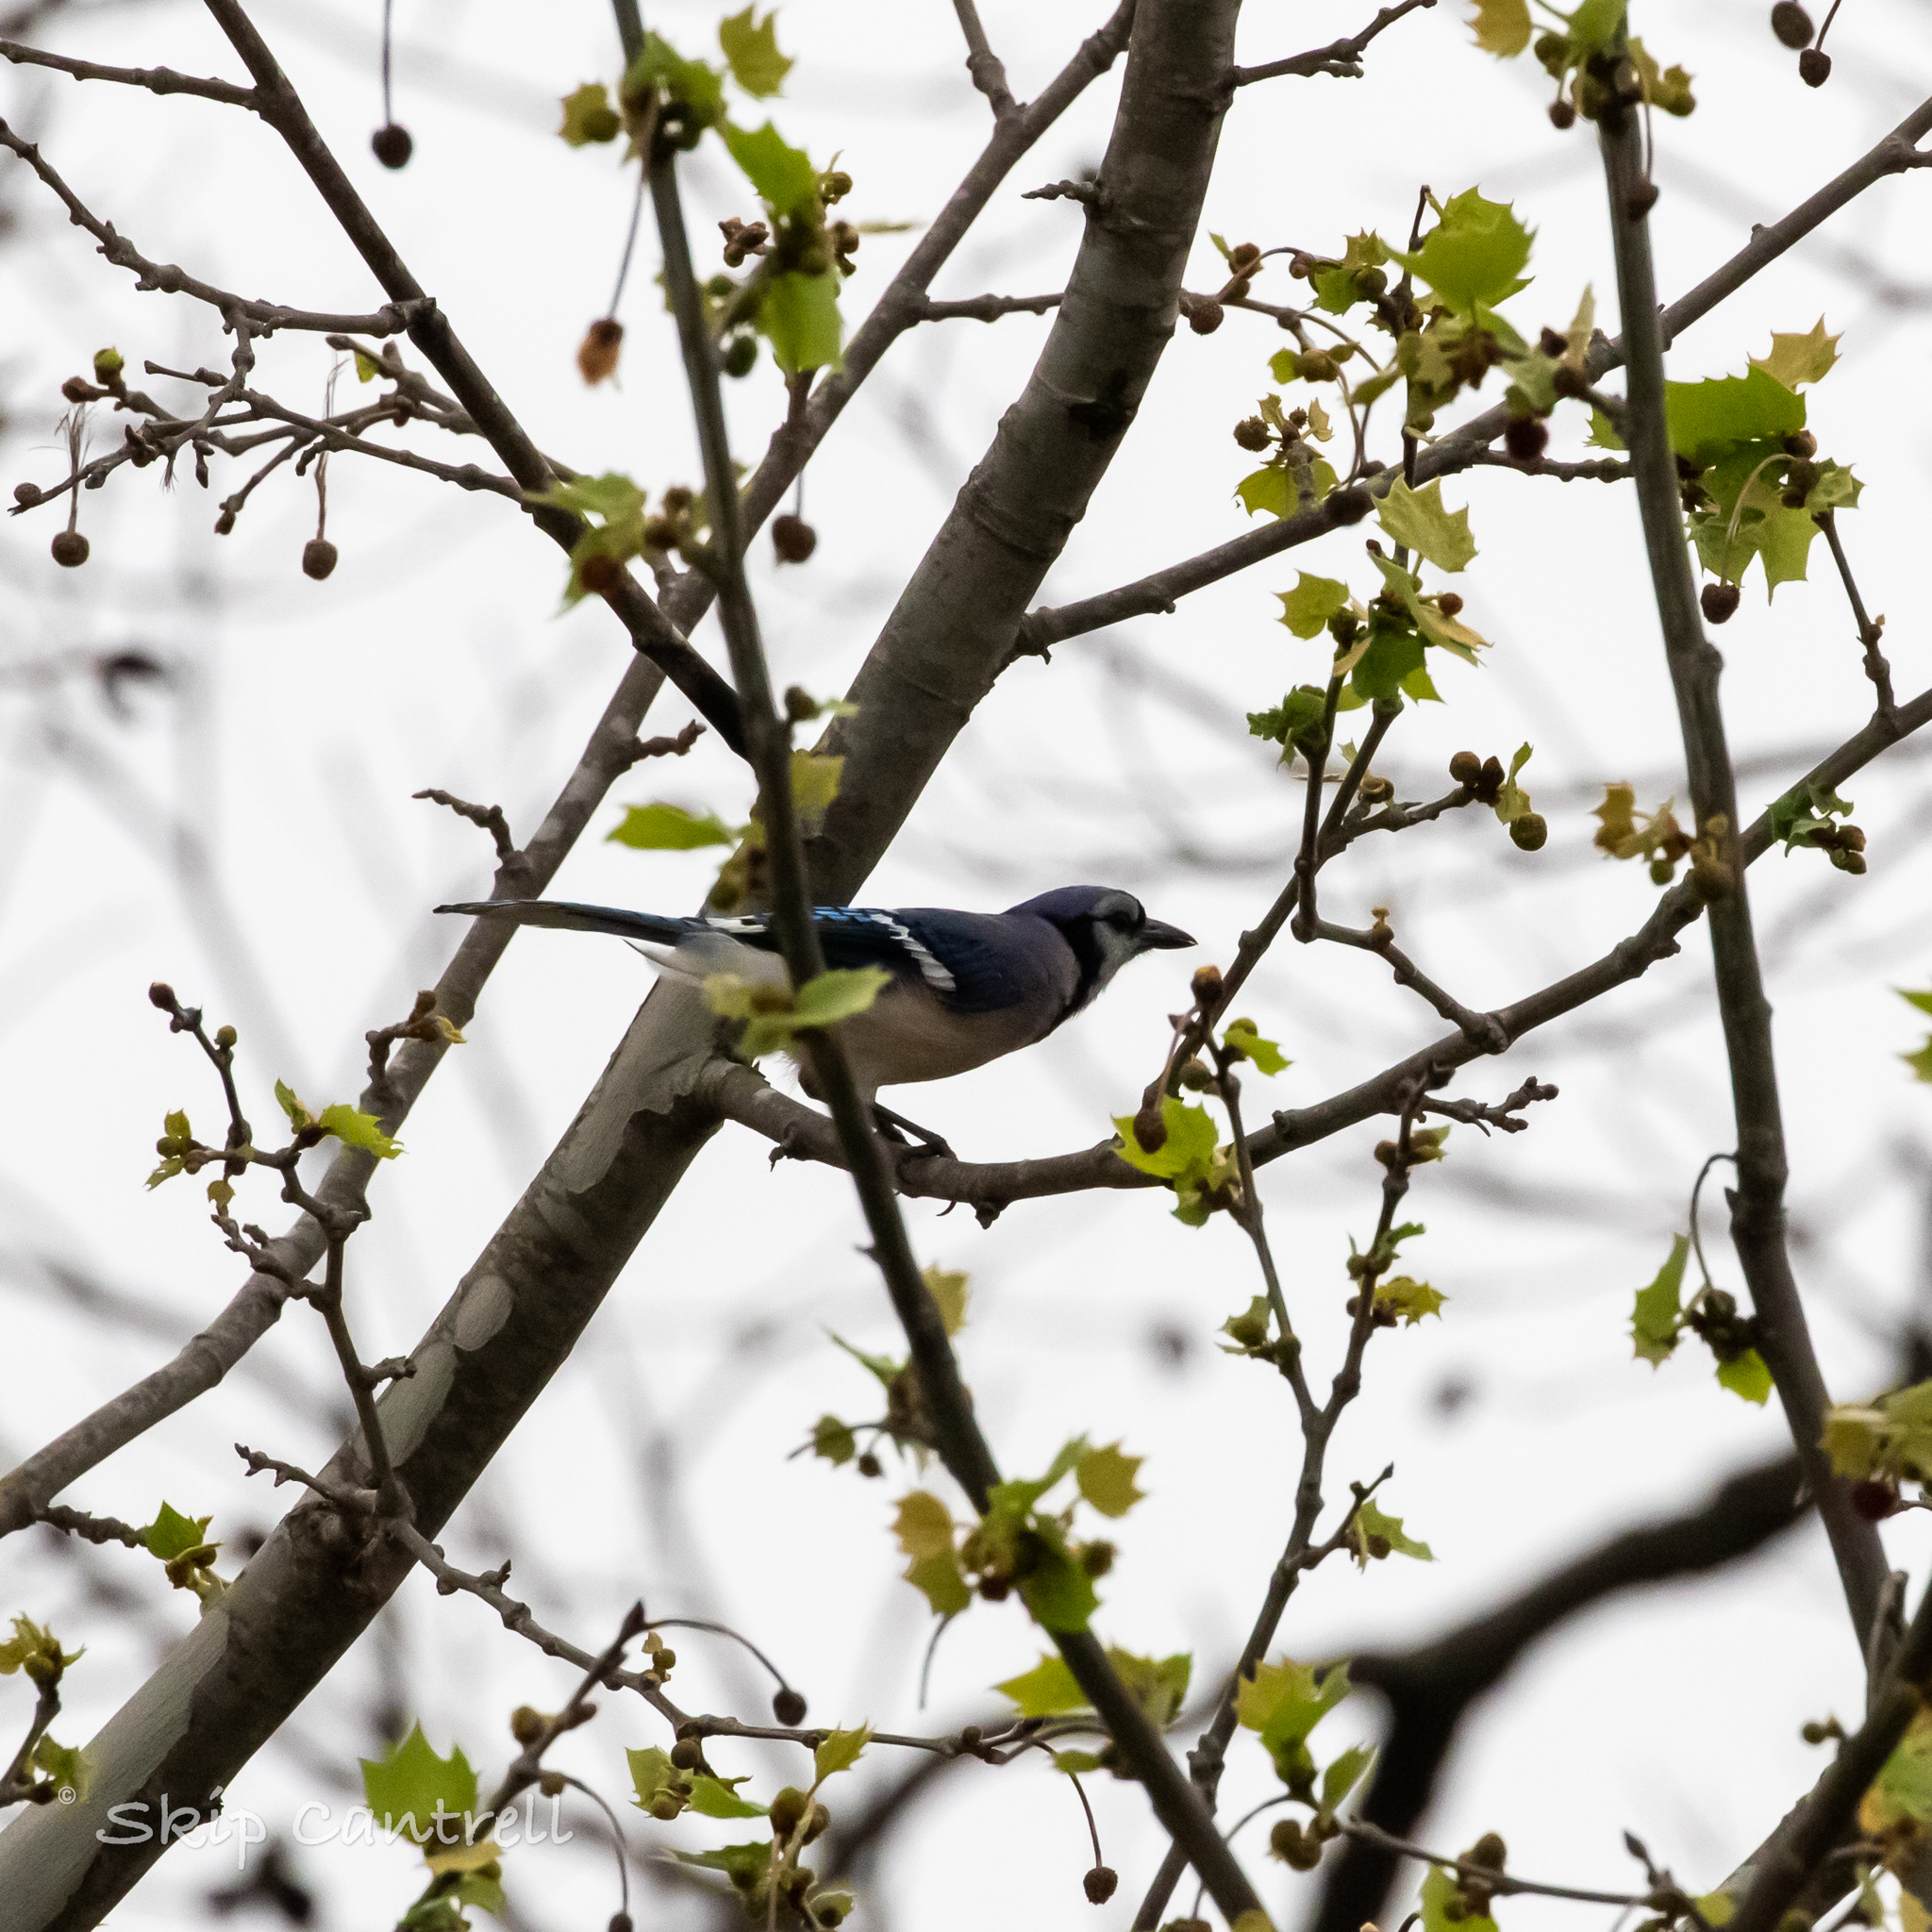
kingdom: Animalia
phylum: Chordata
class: Aves
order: Passeriformes
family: Corvidae
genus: Cyanocitta
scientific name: Cyanocitta cristata
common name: Blue jay
